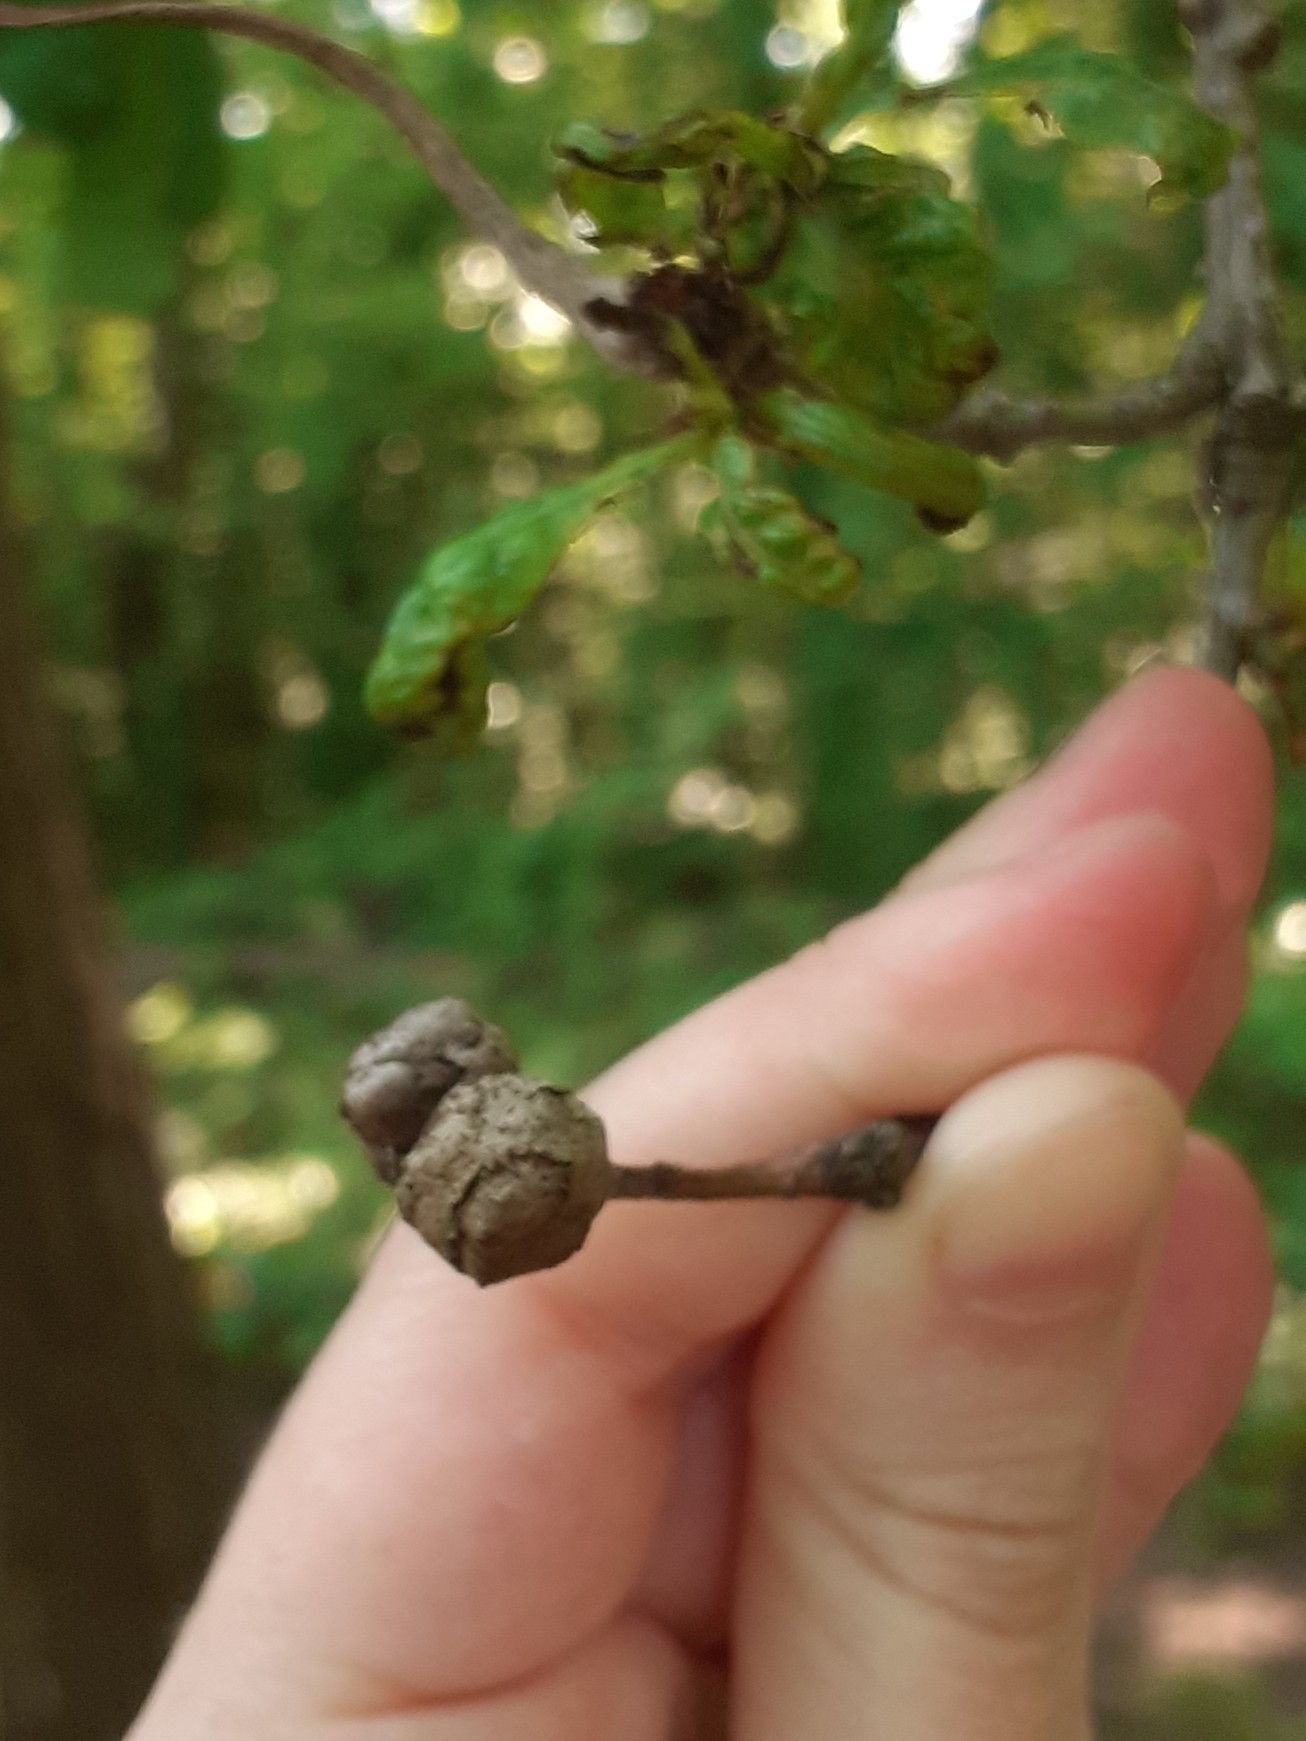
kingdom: Animalia
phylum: Arthropoda
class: Insecta
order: Hymenoptera
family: Cynipidae
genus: Andricus
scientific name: Andricus lignicolus
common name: Cola-nut gall
